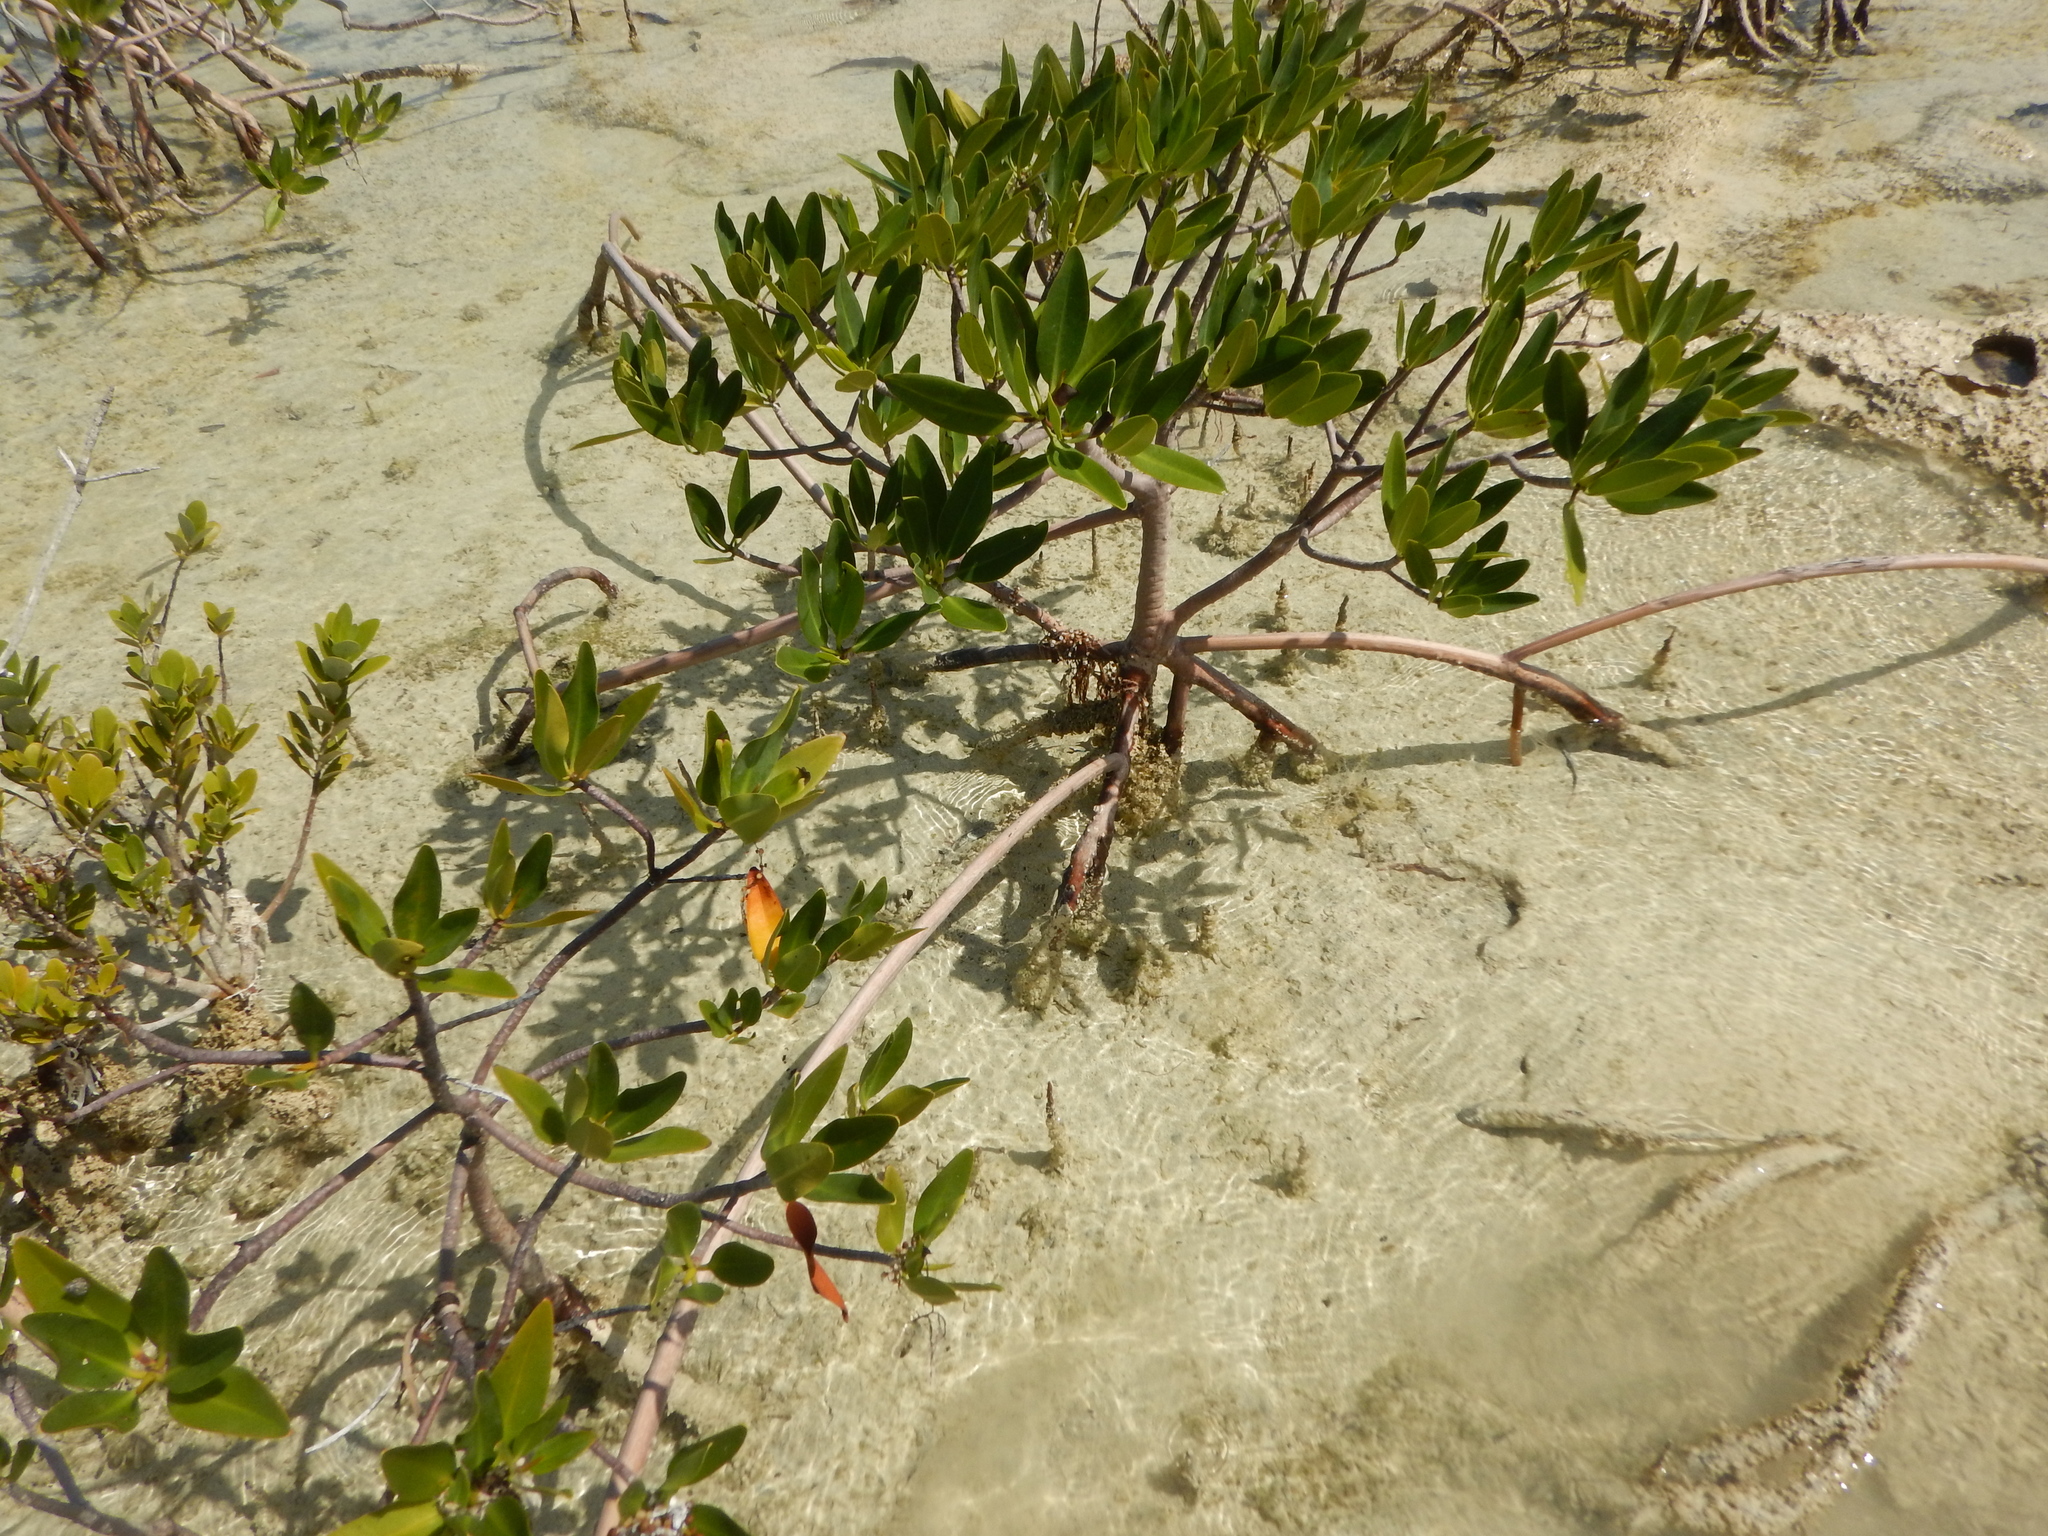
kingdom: Plantae
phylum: Tracheophyta
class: Magnoliopsida
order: Malpighiales
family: Rhizophoraceae
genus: Rhizophora
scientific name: Rhizophora mangle
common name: Red mangrove
